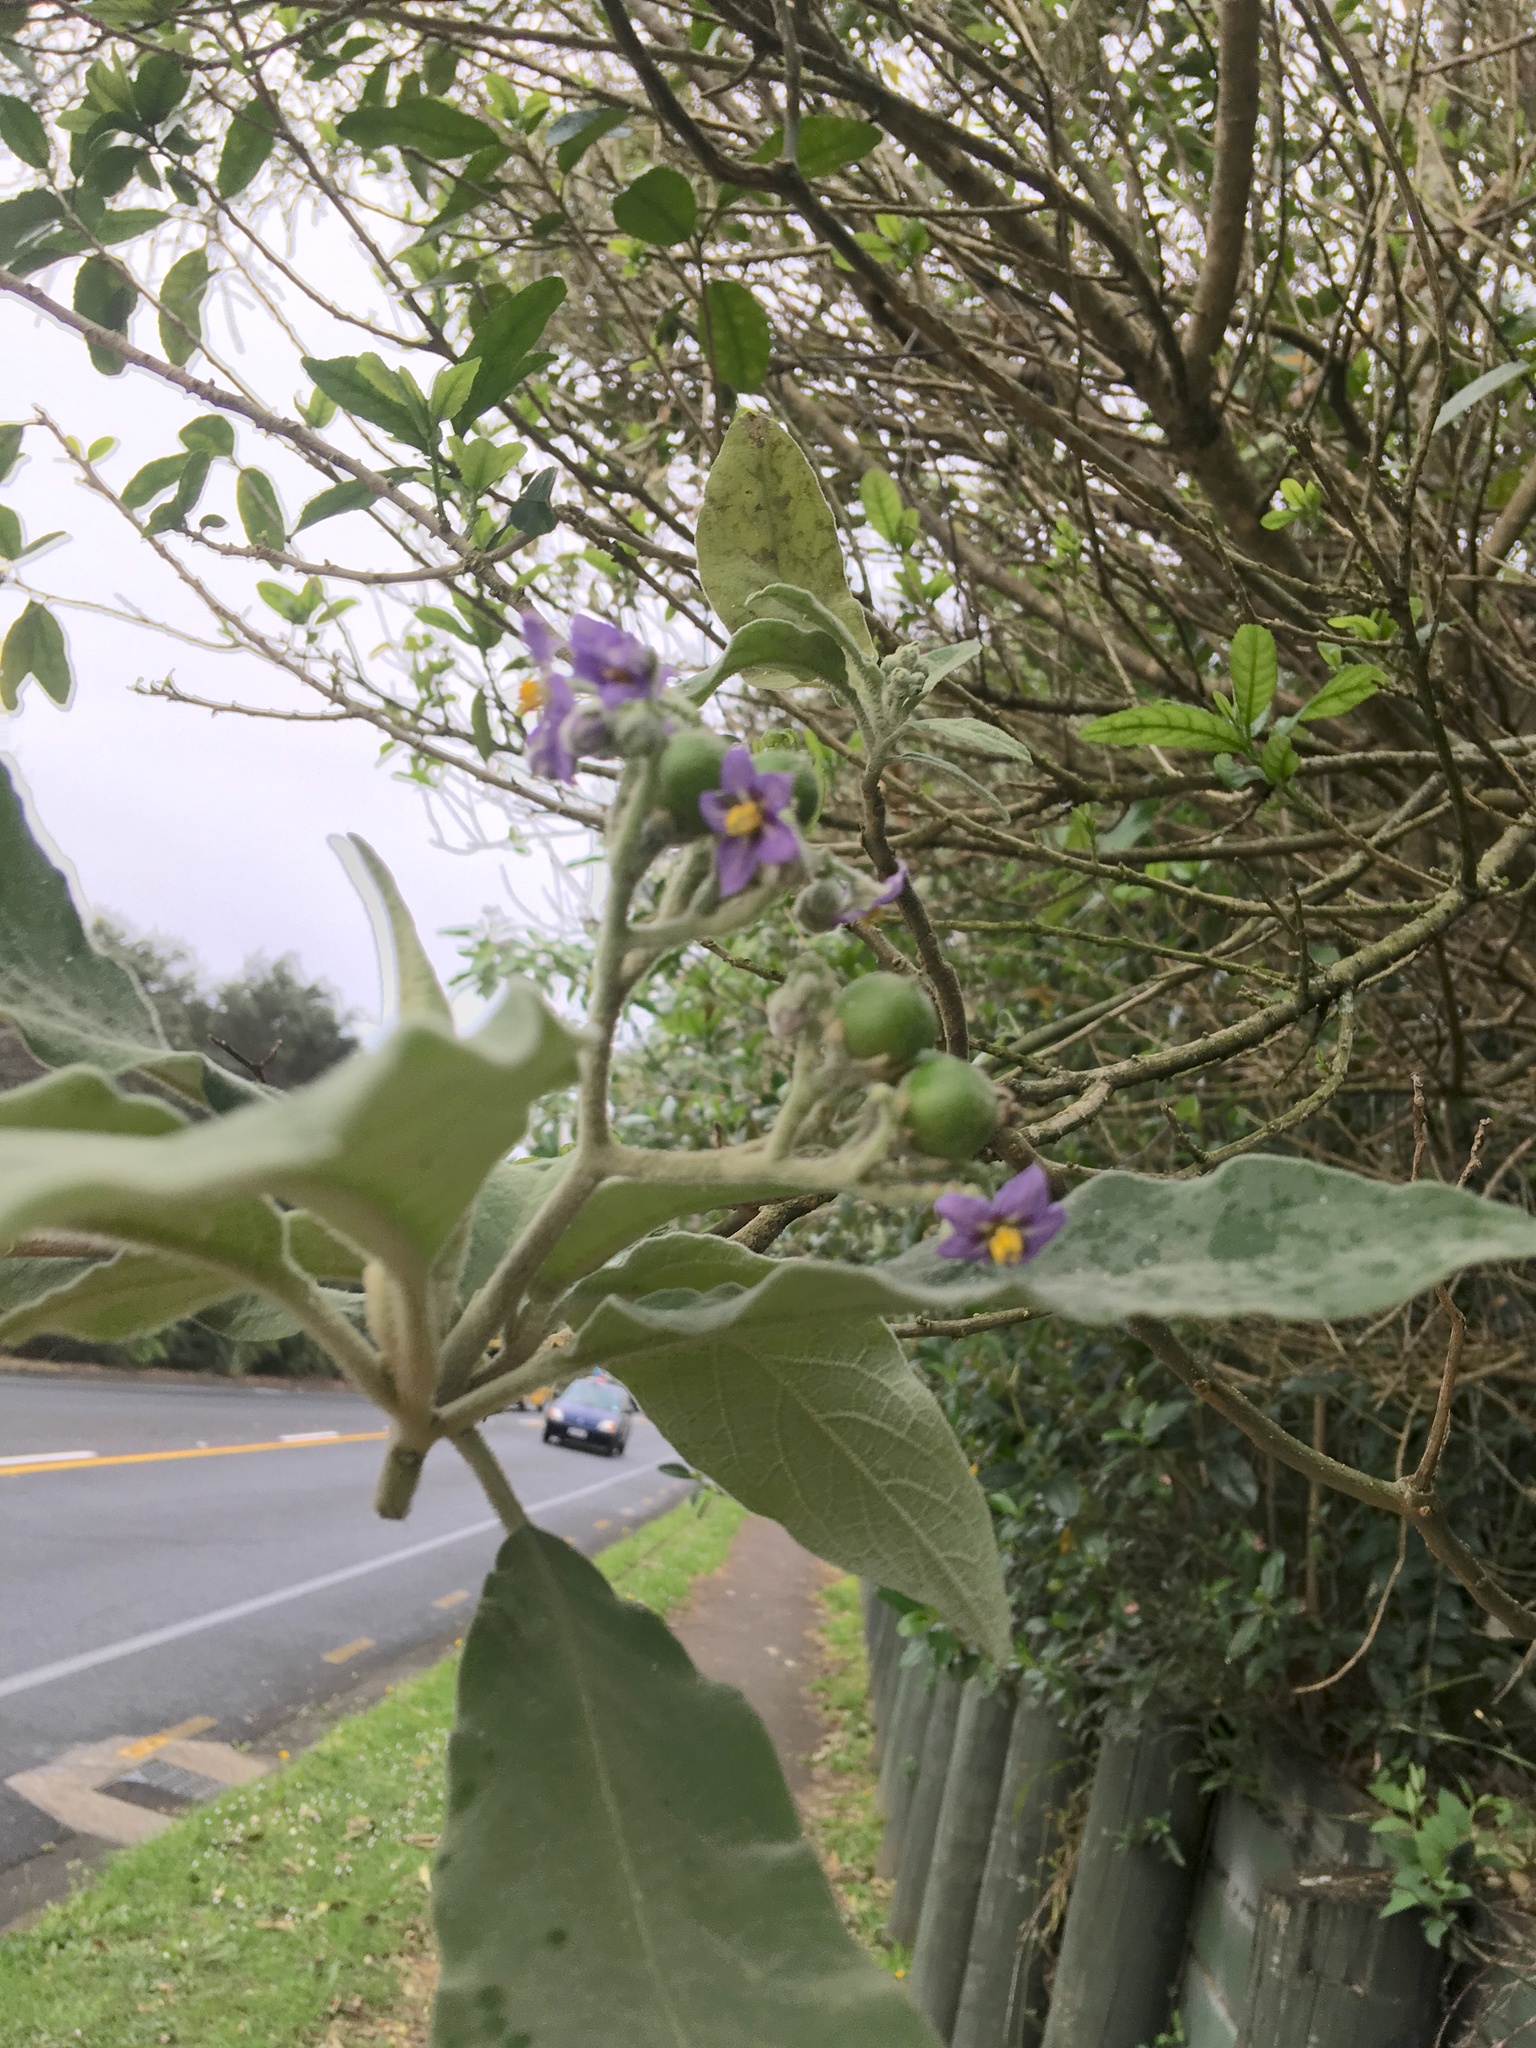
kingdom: Plantae
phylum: Tracheophyta
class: Magnoliopsida
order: Solanales
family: Solanaceae
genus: Solanum
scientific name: Solanum mauritianum
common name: Earleaf nightshade
